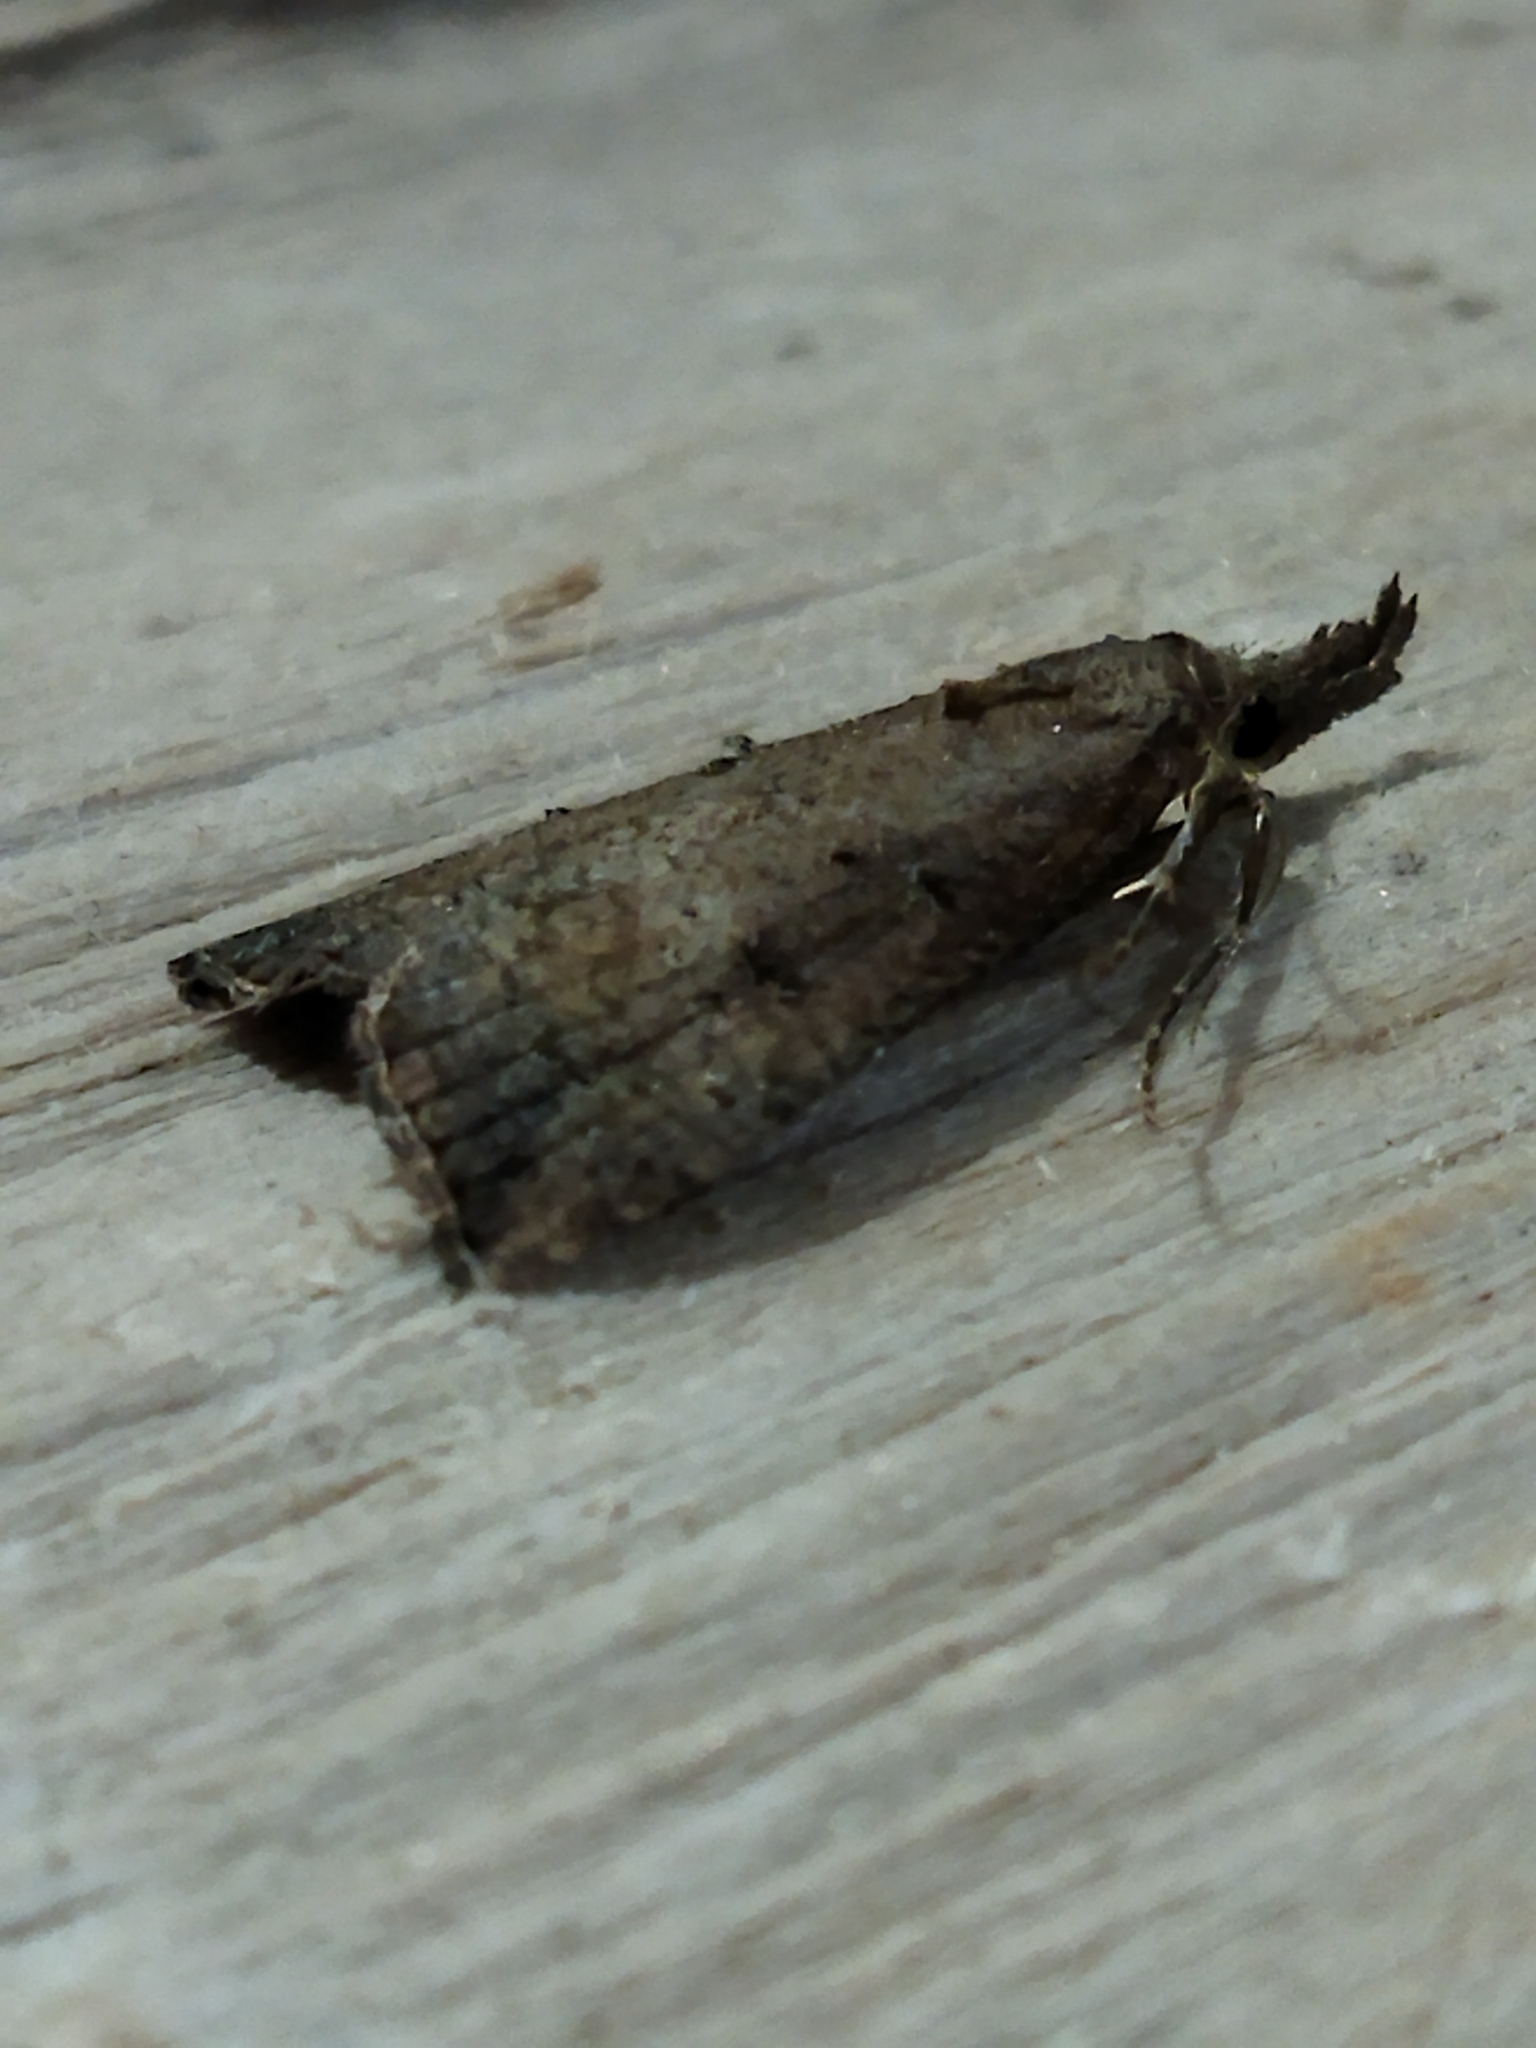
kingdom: Animalia
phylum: Arthropoda
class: Insecta
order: Lepidoptera
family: Erebidae
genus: Hypena
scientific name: Hypena rostralis
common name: Buttoned snout
